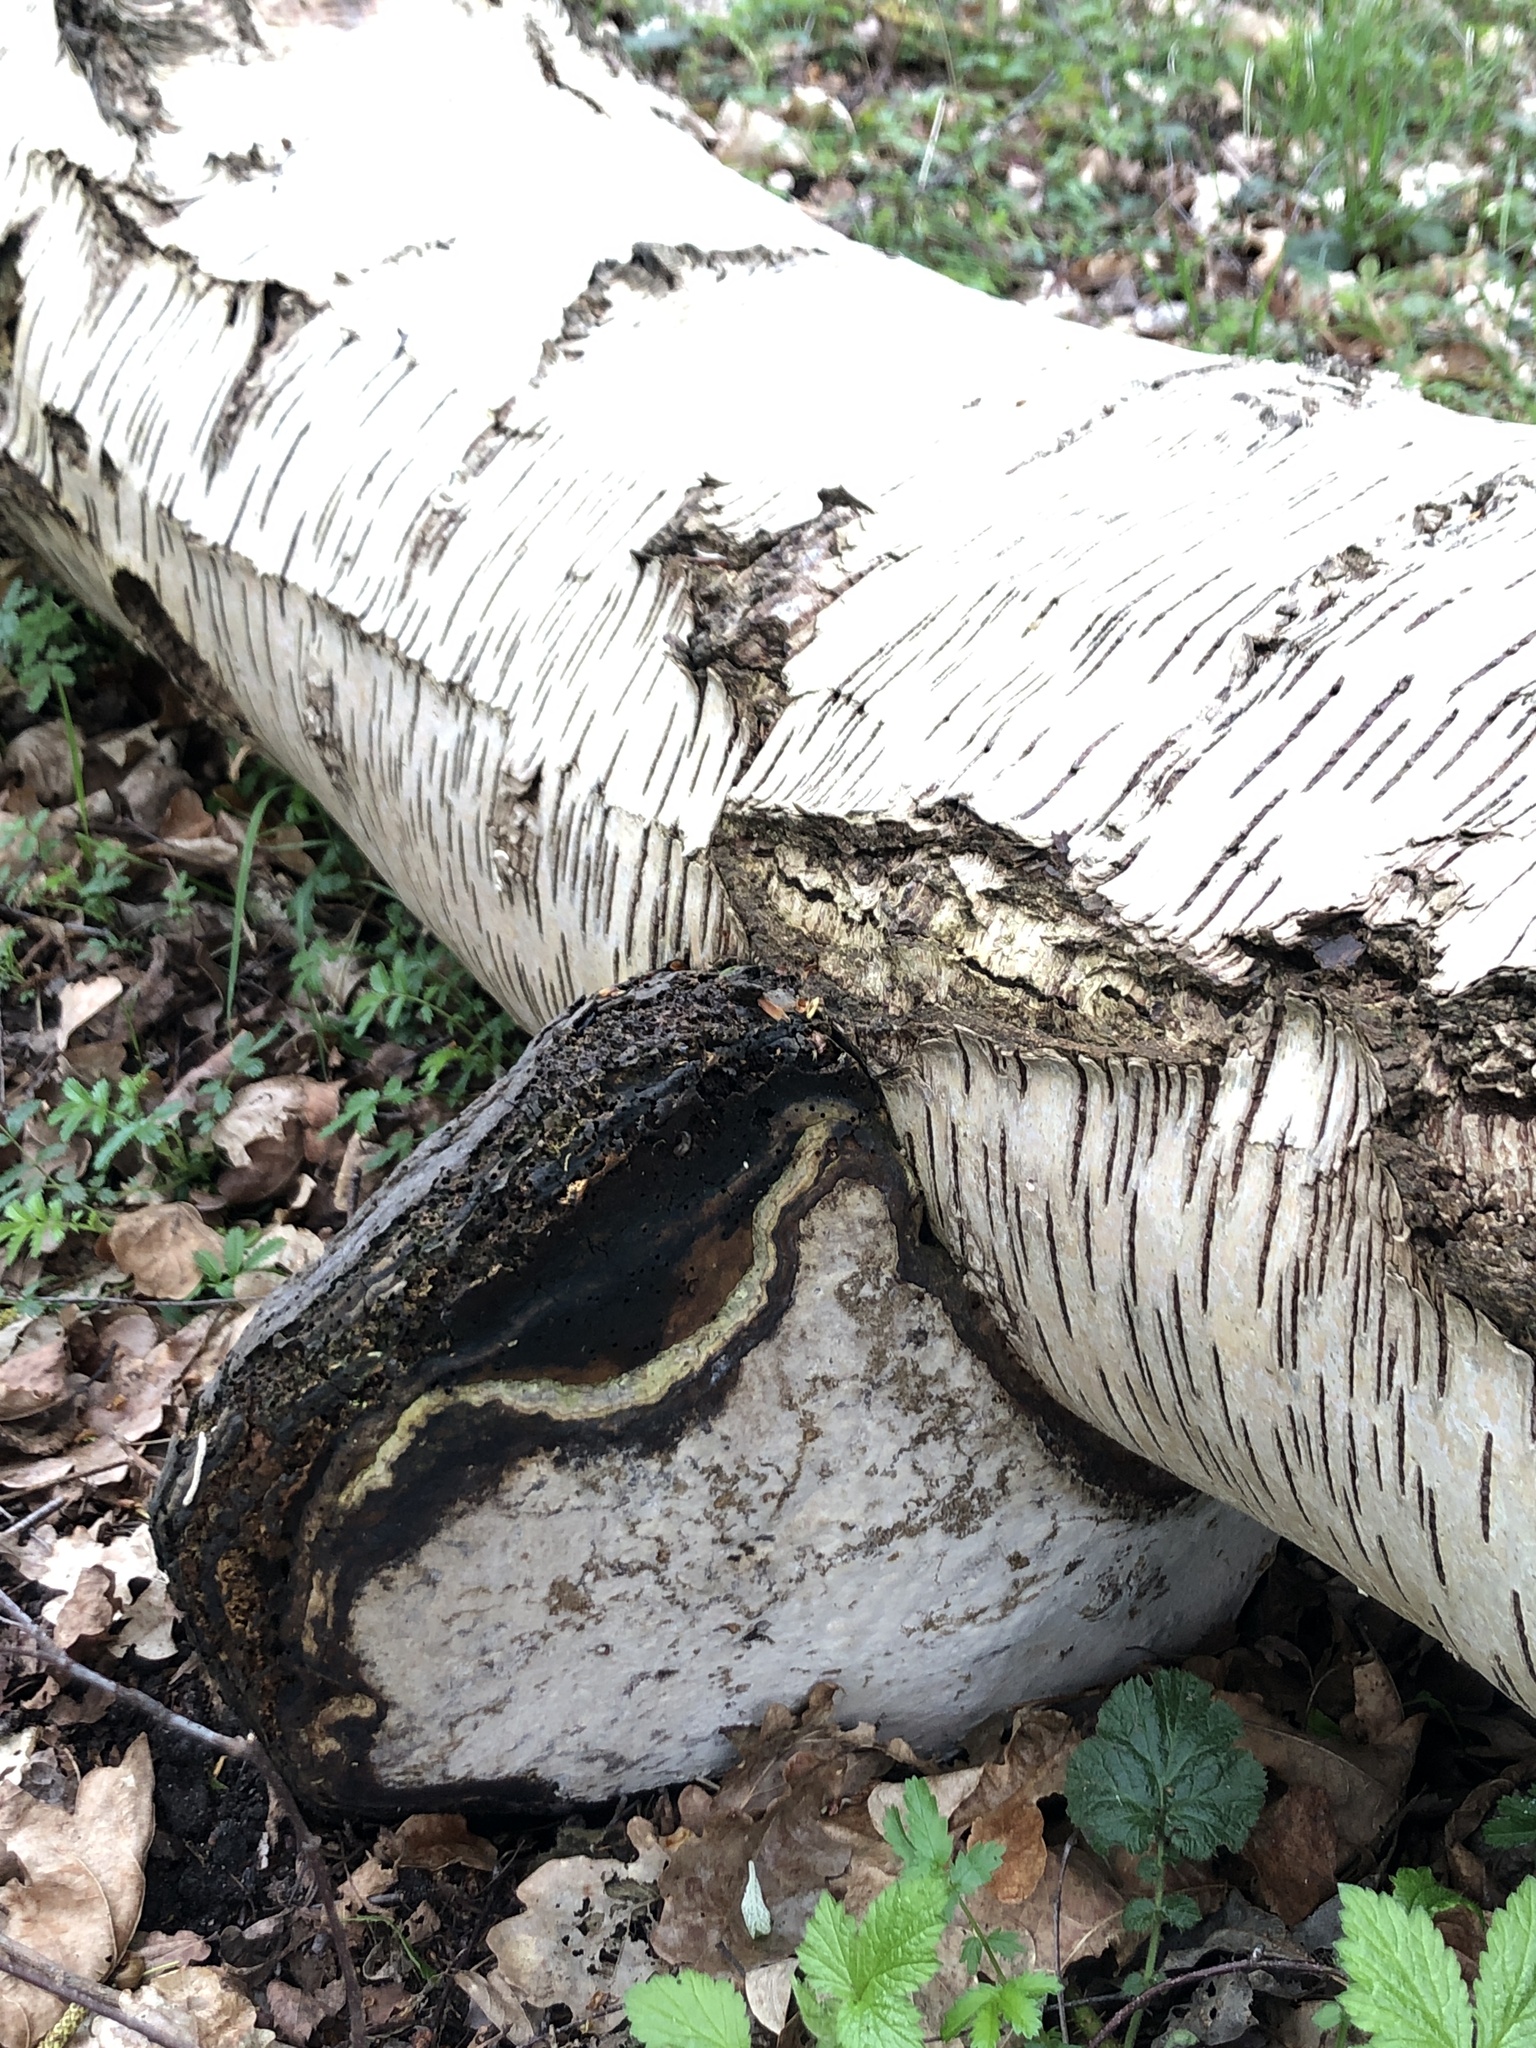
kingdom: Fungi
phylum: Basidiomycota
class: Agaricomycetes
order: Polyporales
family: Polyporaceae
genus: Fomes
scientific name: Fomes fomentarius
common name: Hoof fungus
